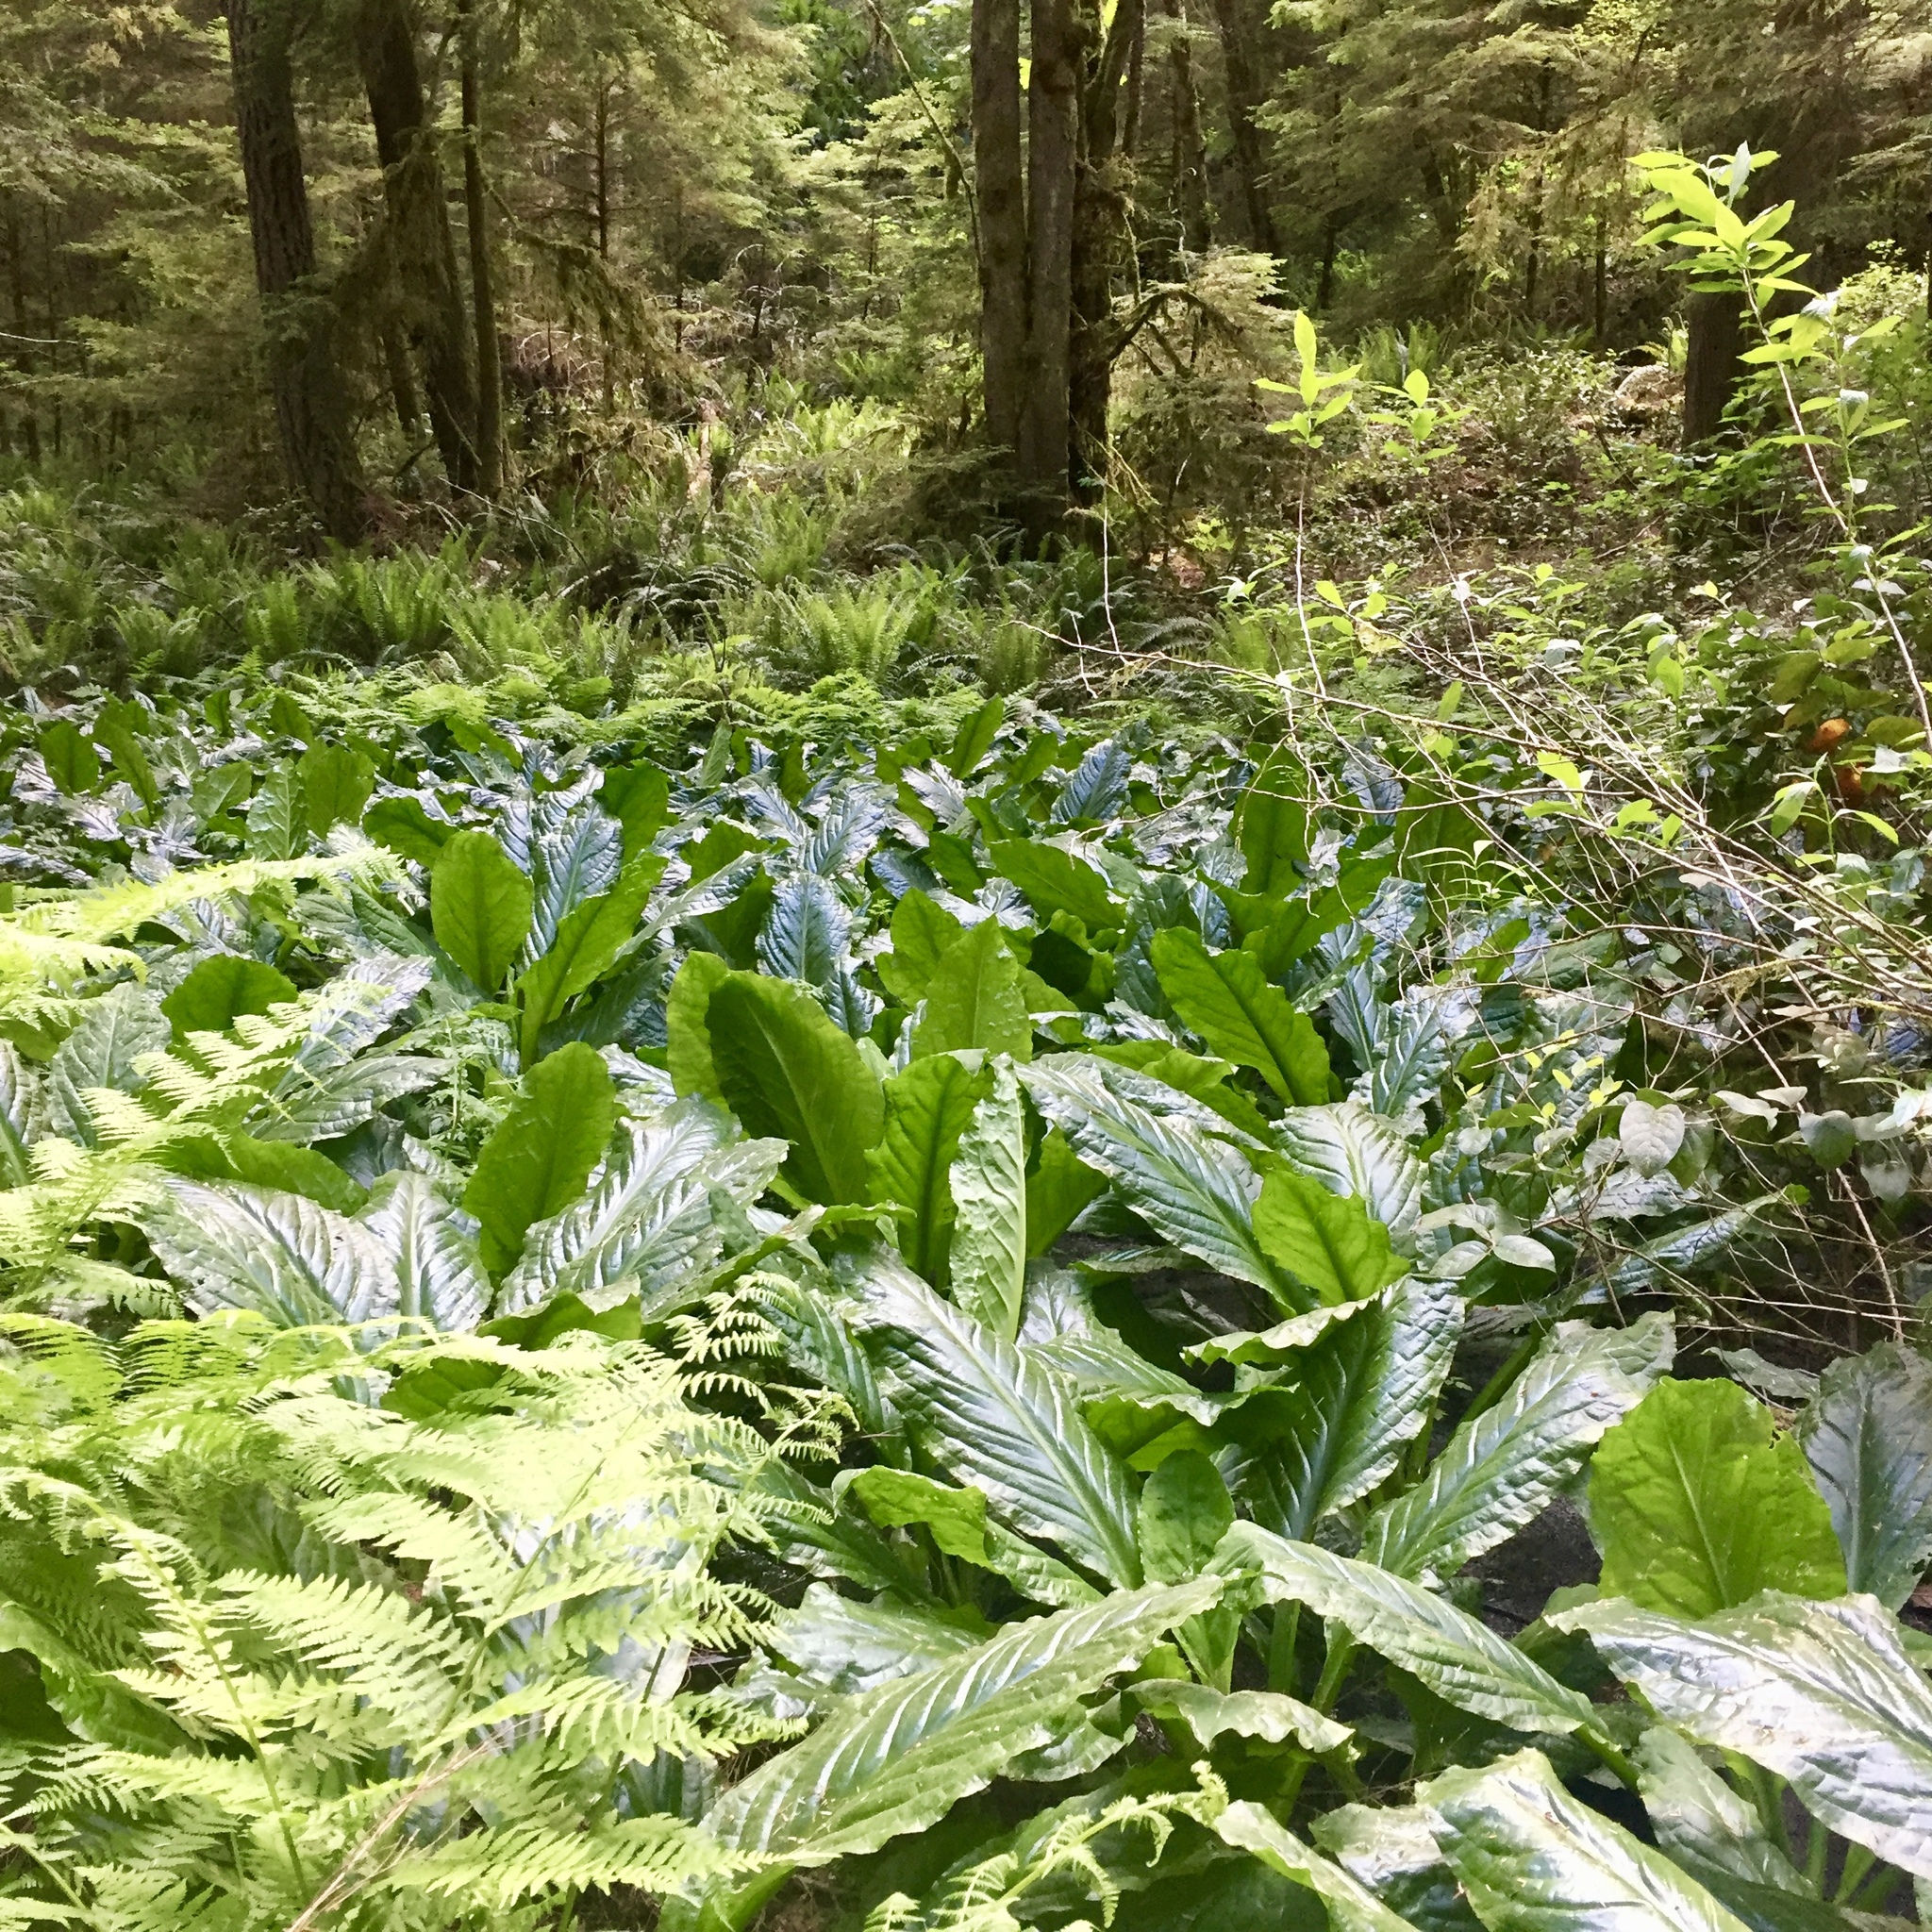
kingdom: Plantae
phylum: Tracheophyta
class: Liliopsida
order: Alismatales
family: Araceae
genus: Lysichiton
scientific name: Lysichiton americanus
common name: American skunk cabbage
